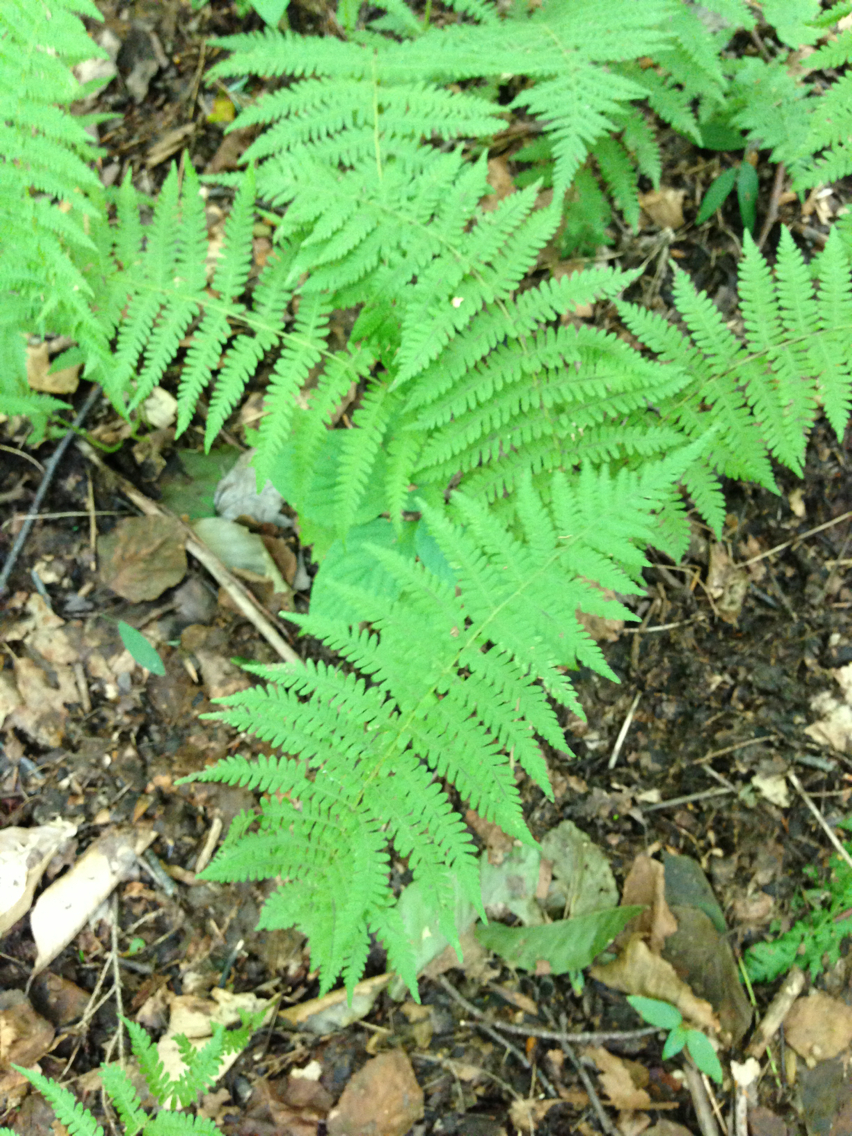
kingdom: Plantae
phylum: Tracheophyta
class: Polypodiopsida
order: Polypodiales
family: Thelypteridaceae
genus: Amauropelta
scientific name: Amauropelta noveboracensis
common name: New york fern
